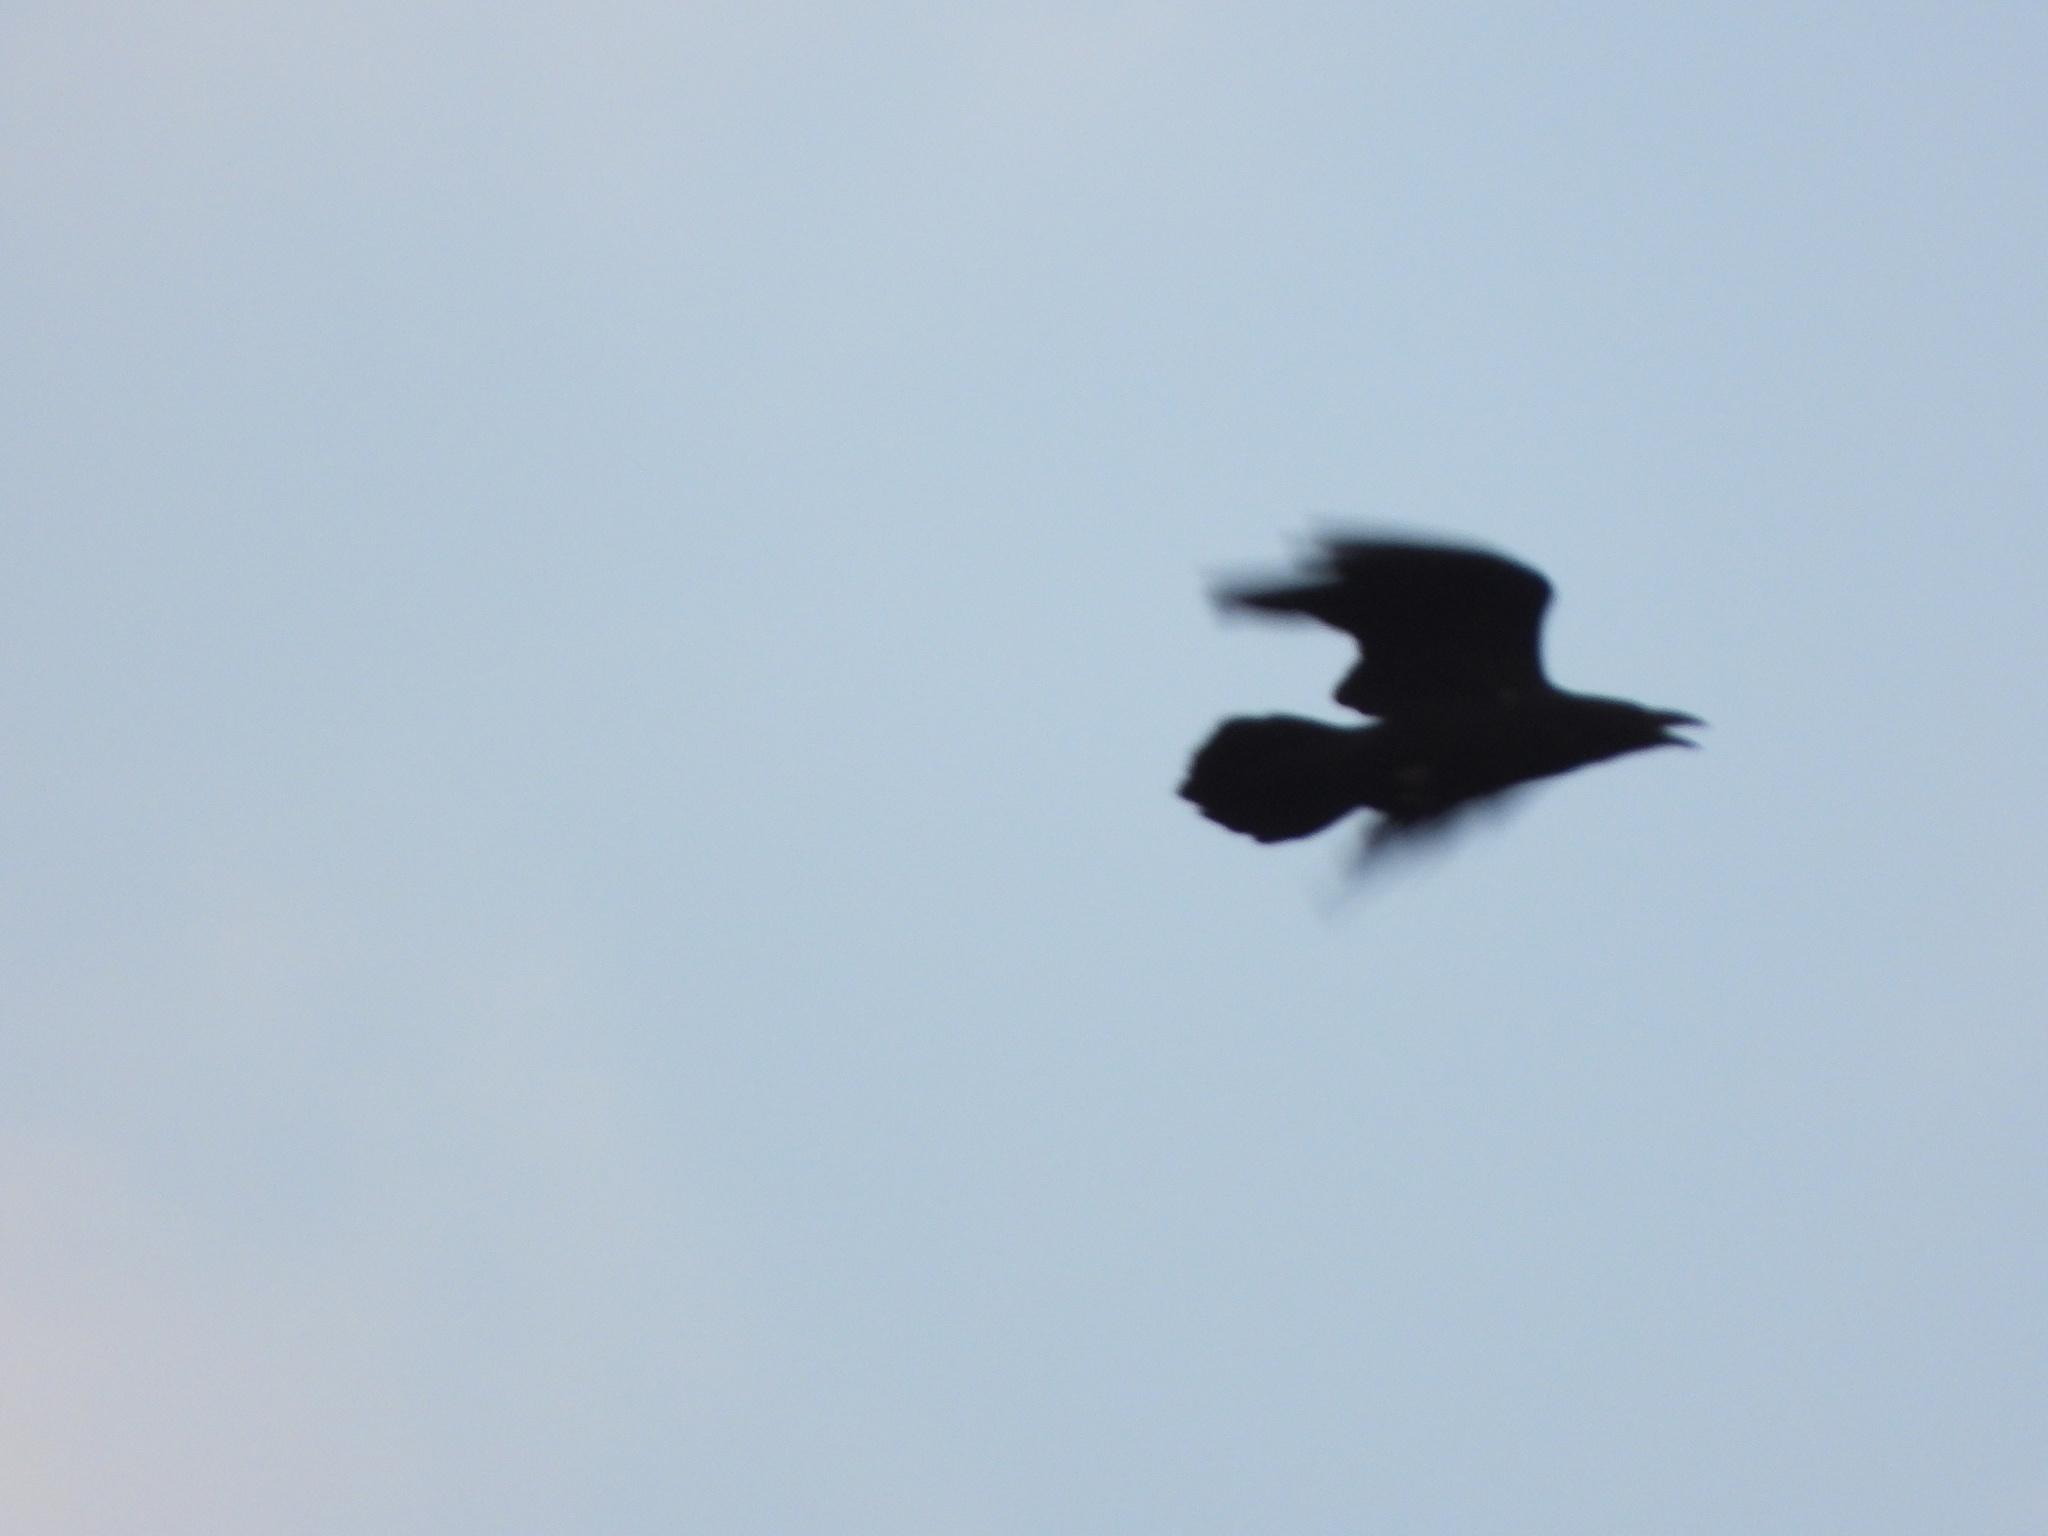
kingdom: Animalia
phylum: Chordata
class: Aves
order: Passeriformes
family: Corvidae
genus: Corvus
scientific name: Corvus corax
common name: Common raven
